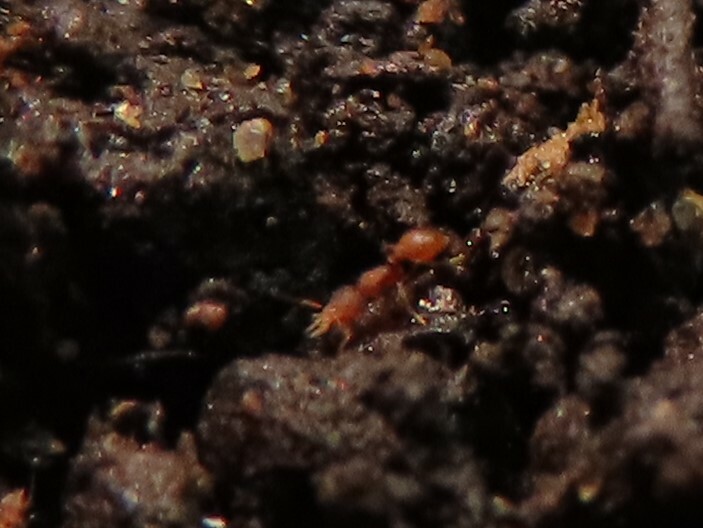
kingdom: Animalia
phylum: Arthropoda
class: Insecta
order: Hymenoptera
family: Formicidae
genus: Pyramica
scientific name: Pyramica eggersi
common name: Ant
